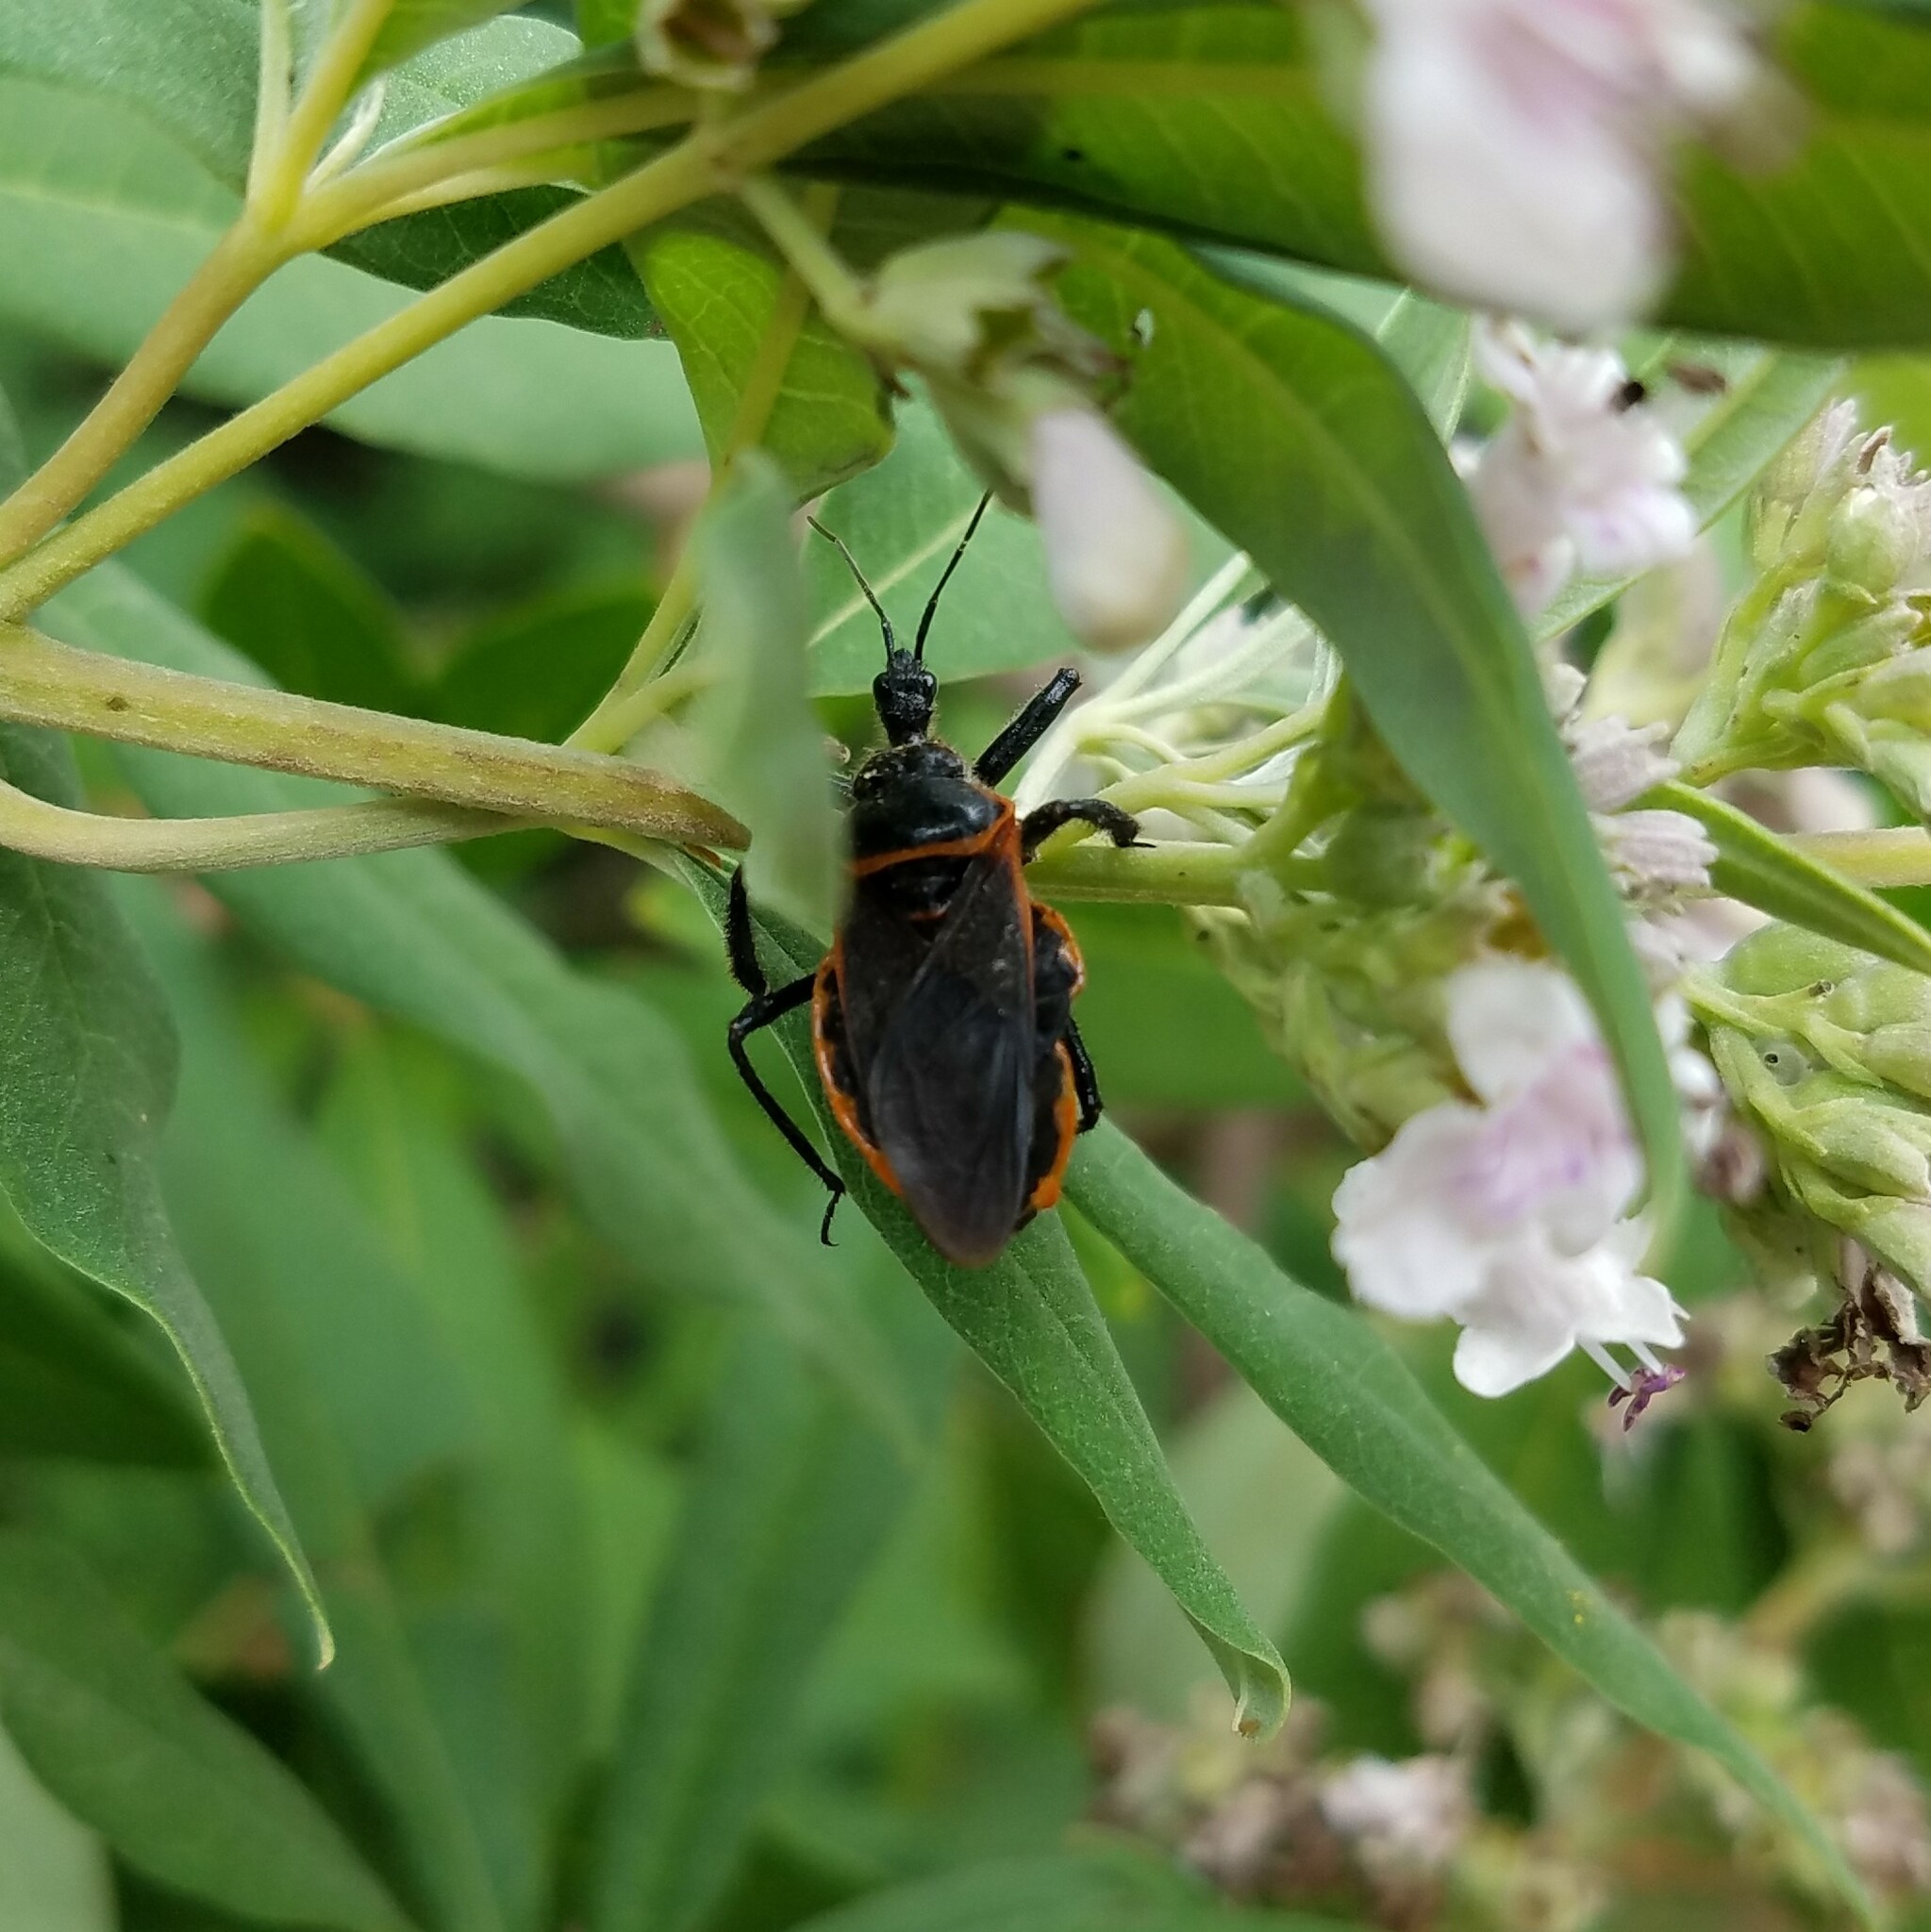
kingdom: Animalia
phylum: Arthropoda
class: Insecta
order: Hemiptera
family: Reduviidae
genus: Apiomerus
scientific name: Apiomerus crassipes
